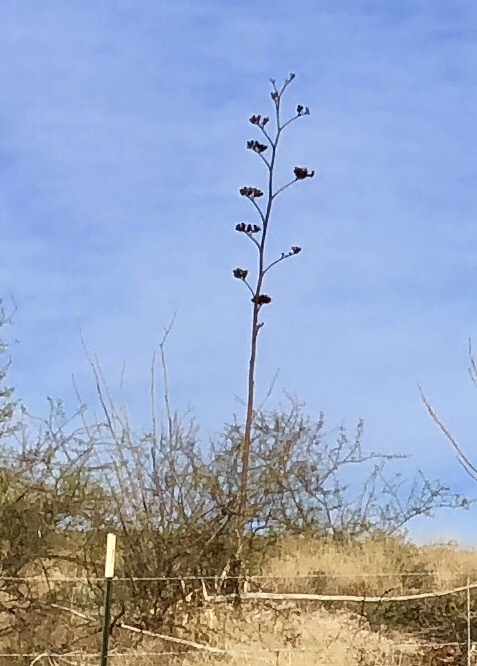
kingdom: Plantae
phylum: Tracheophyta
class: Liliopsida
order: Asparagales
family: Asparagaceae
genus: Agave
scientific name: Agave palmeri
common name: Palmer agave
